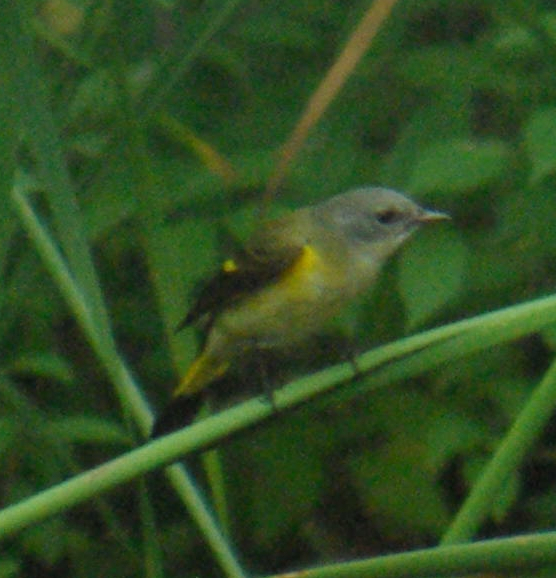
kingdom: Animalia
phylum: Chordata
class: Aves
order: Passeriformes
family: Parulidae
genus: Setophaga
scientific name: Setophaga ruticilla
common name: American redstart
